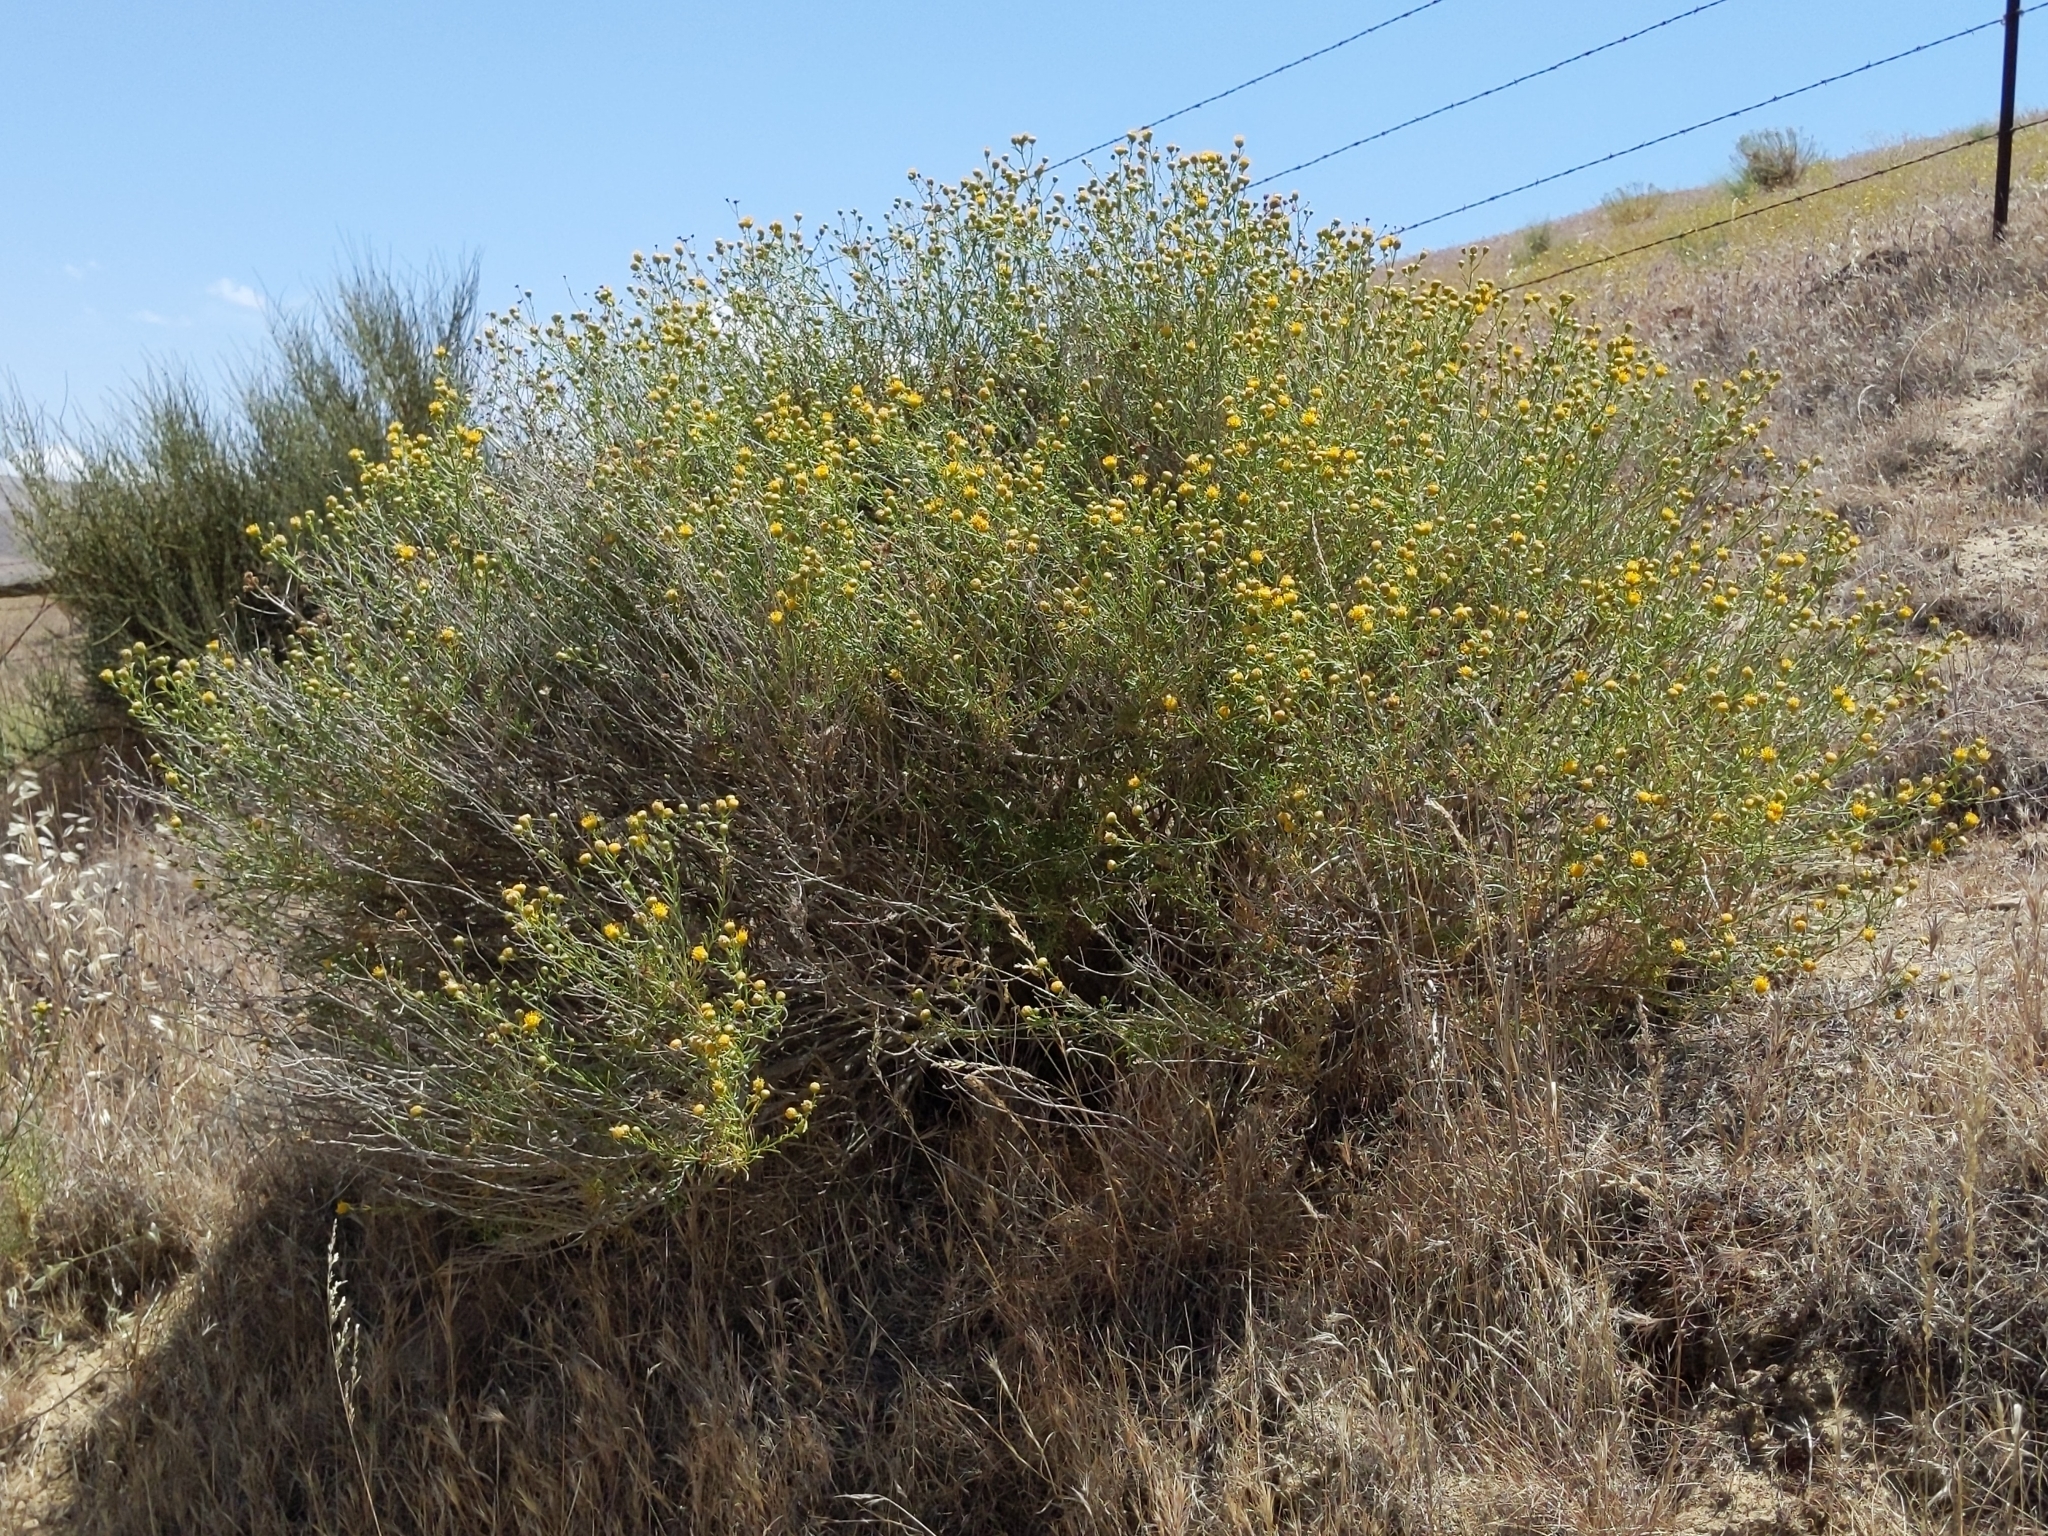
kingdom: Plantae
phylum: Tracheophyta
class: Magnoliopsida
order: Asterales
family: Asteraceae
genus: Eastwoodia
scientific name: Eastwoodia elegans
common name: Yellow-aster
